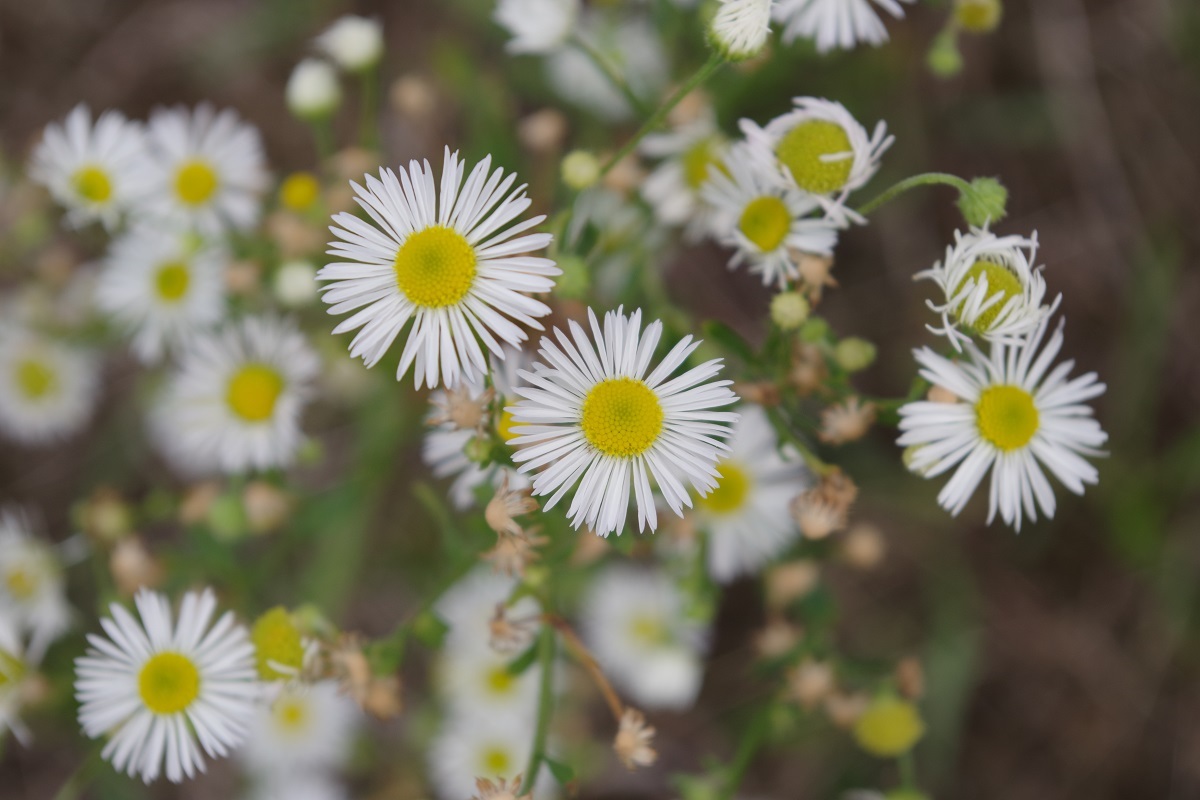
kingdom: Plantae
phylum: Tracheophyta
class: Magnoliopsida
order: Asterales
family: Asteraceae
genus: Erigeron
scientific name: Erigeron annuus
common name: Tall fleabane
